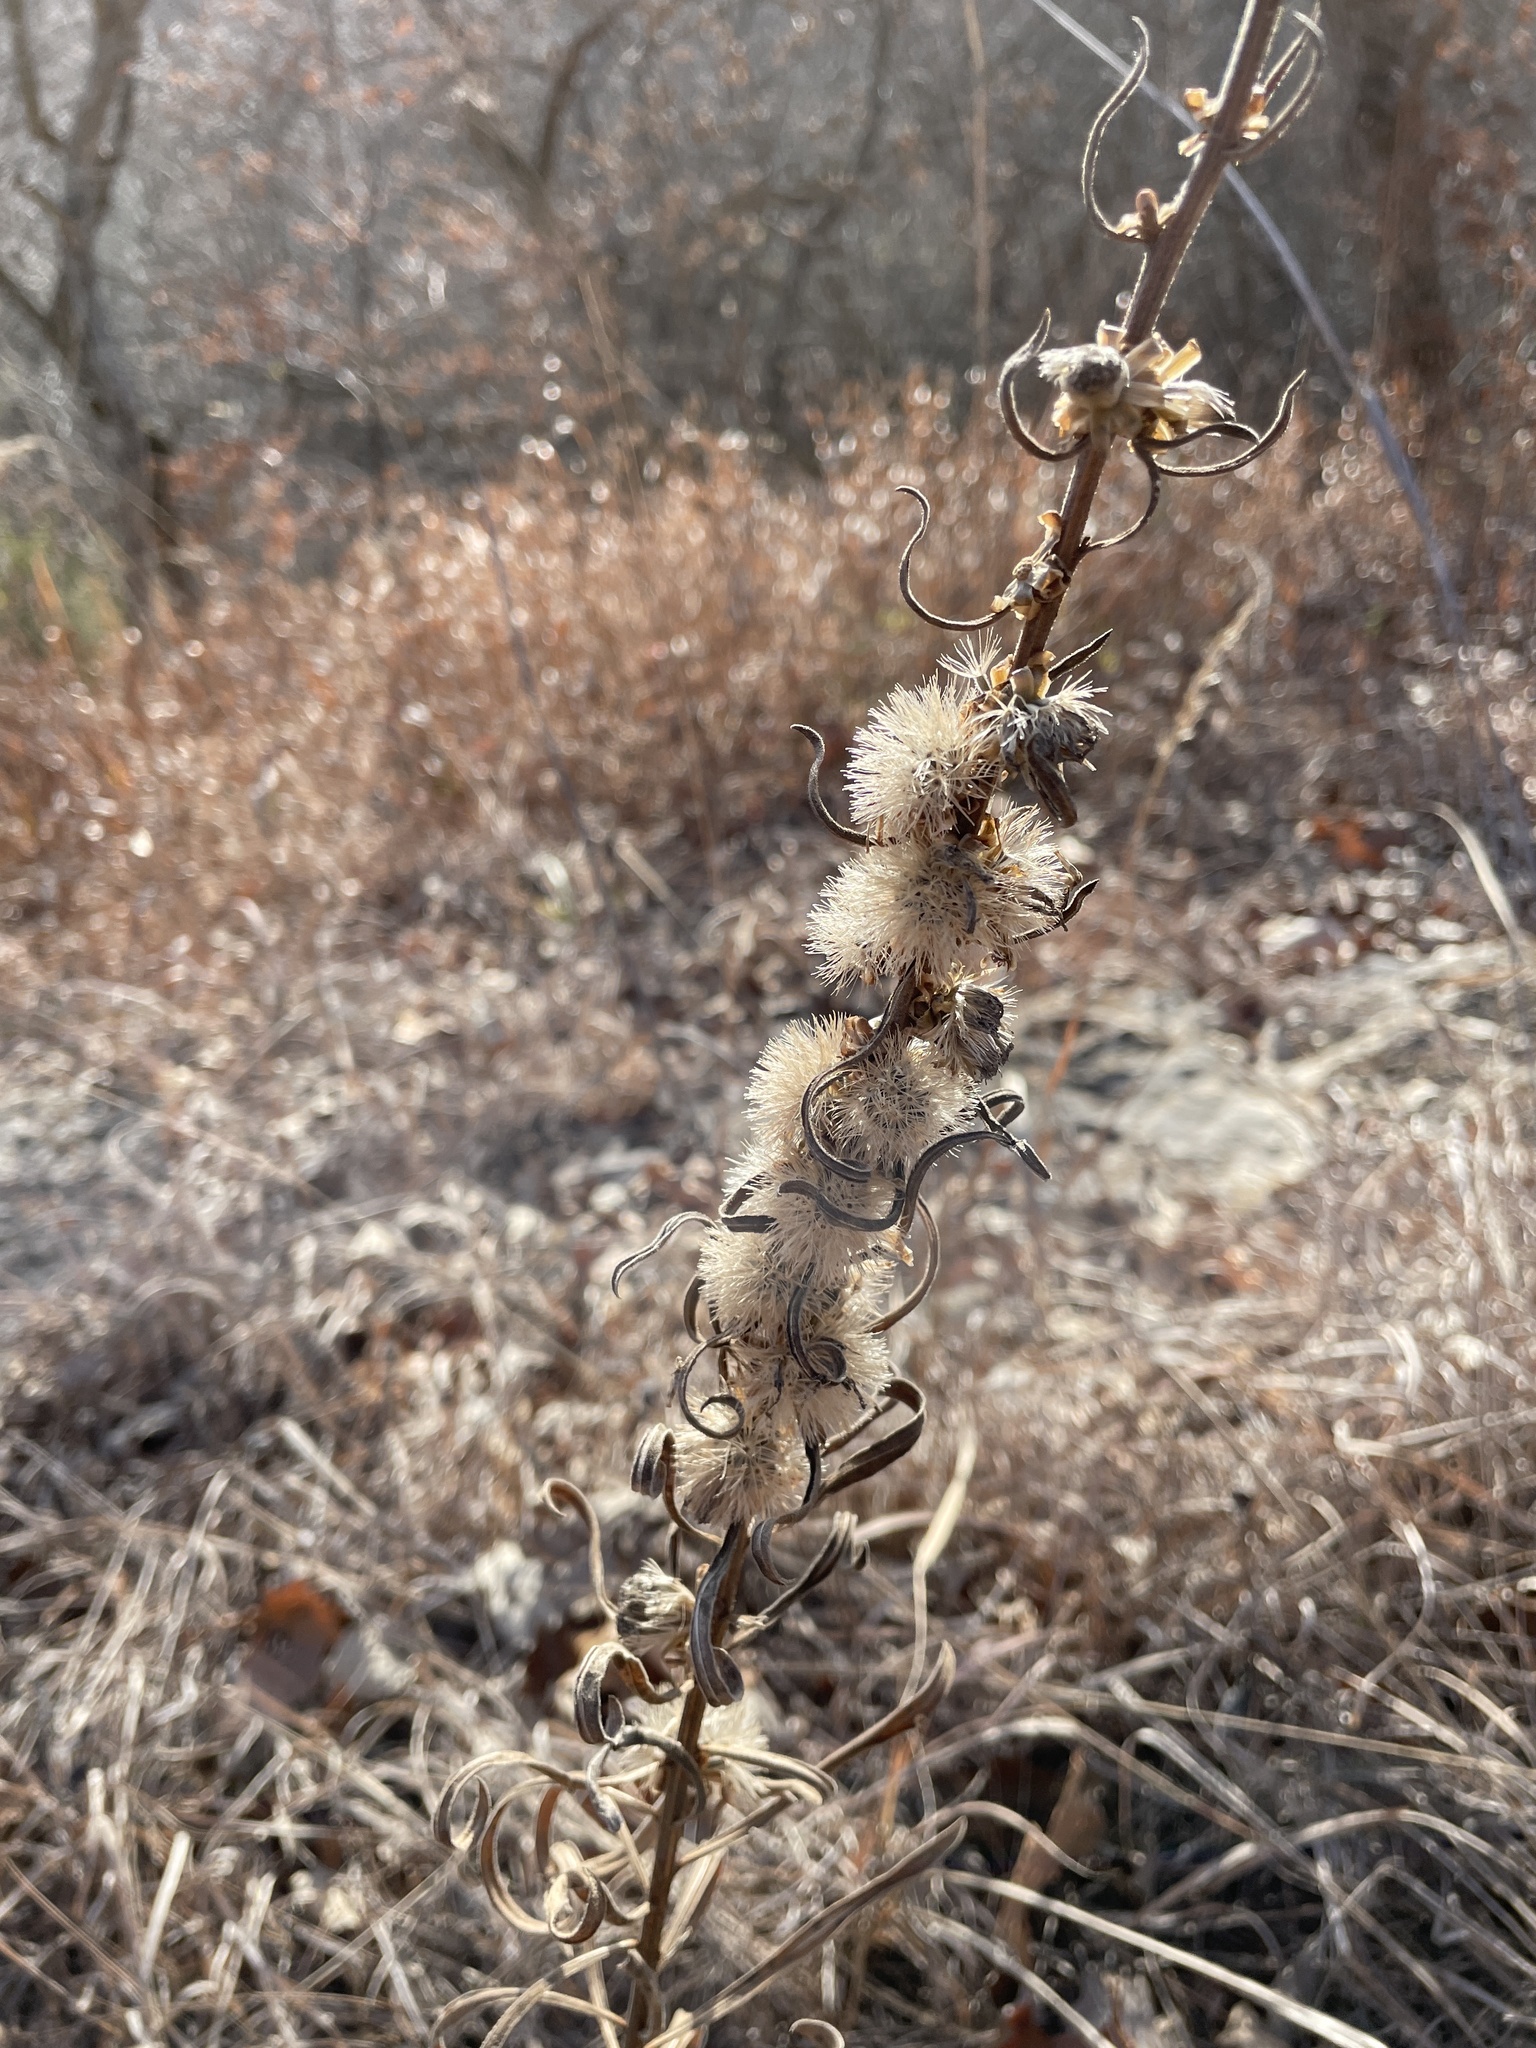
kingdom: Plantae
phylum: Tracheophyta
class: Magnoliopsida
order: Asterales
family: Asteraceae
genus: Liatris
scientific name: Liatris aspera
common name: Lacerate blazing-star
